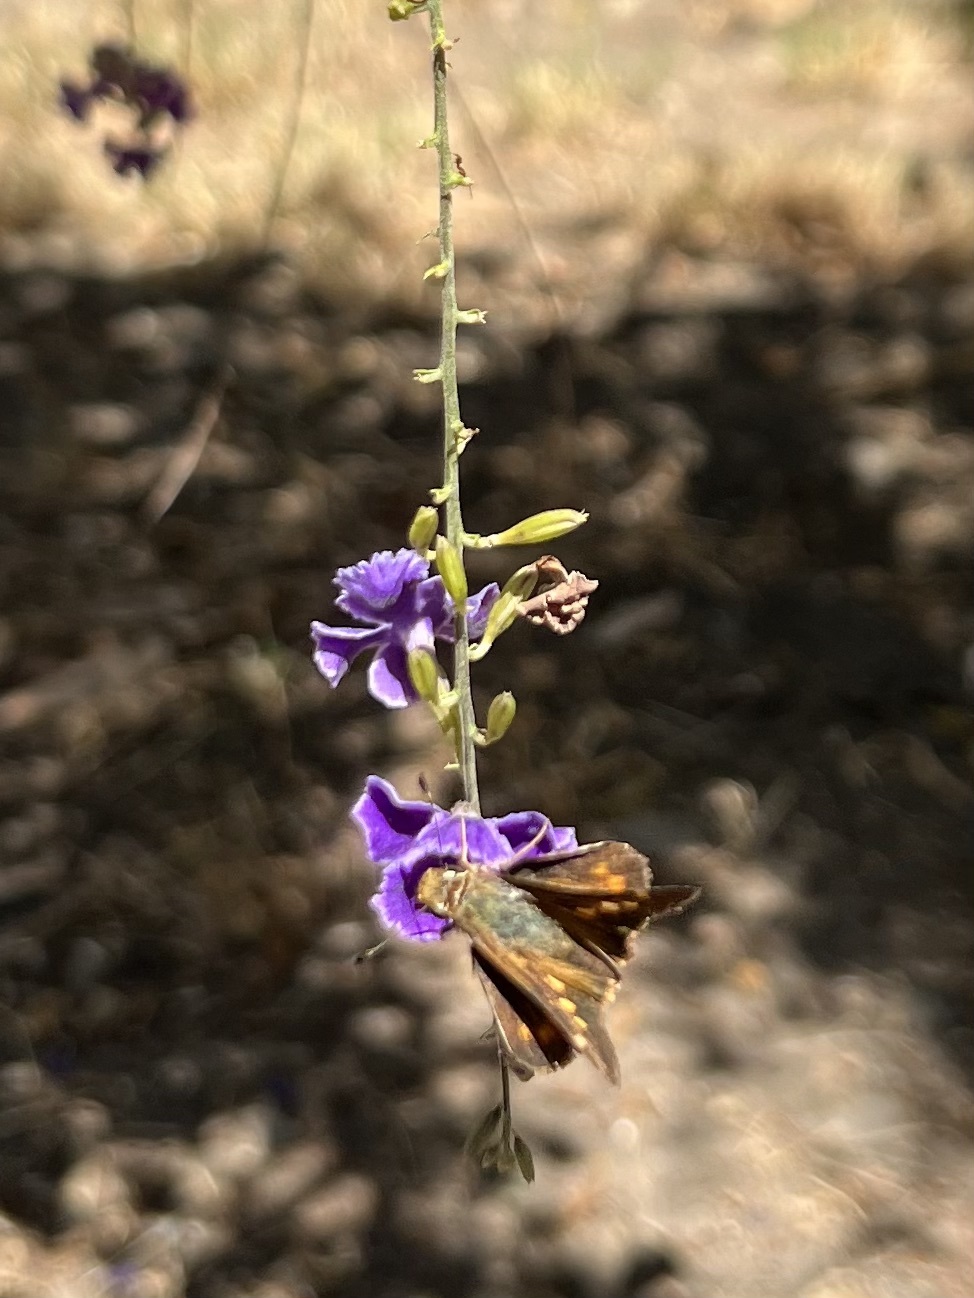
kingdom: Animalia
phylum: Arthropoda
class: Insecta
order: Lepidoptera
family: Hesperiidae
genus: Lon
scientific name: Lon melane
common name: Umber skipper
